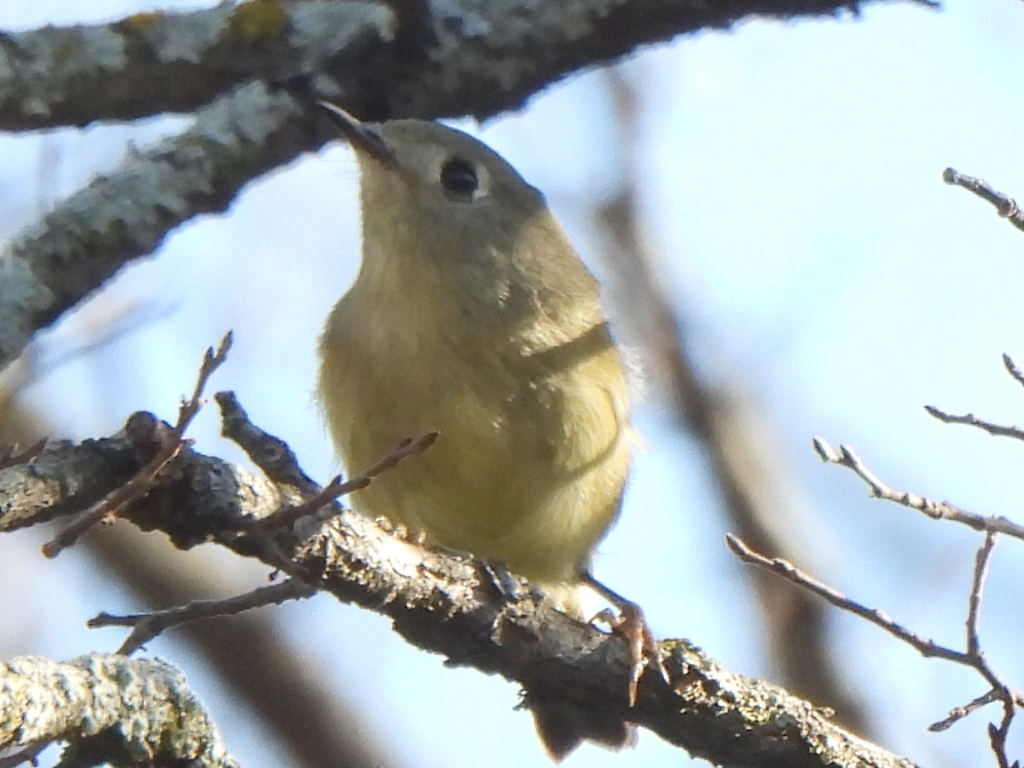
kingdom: Animalia
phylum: Chordata
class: Aves
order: Passeriformes
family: Regulidae
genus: Regulus
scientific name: Regulus calendula
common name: Ruby-crowned kinglet
